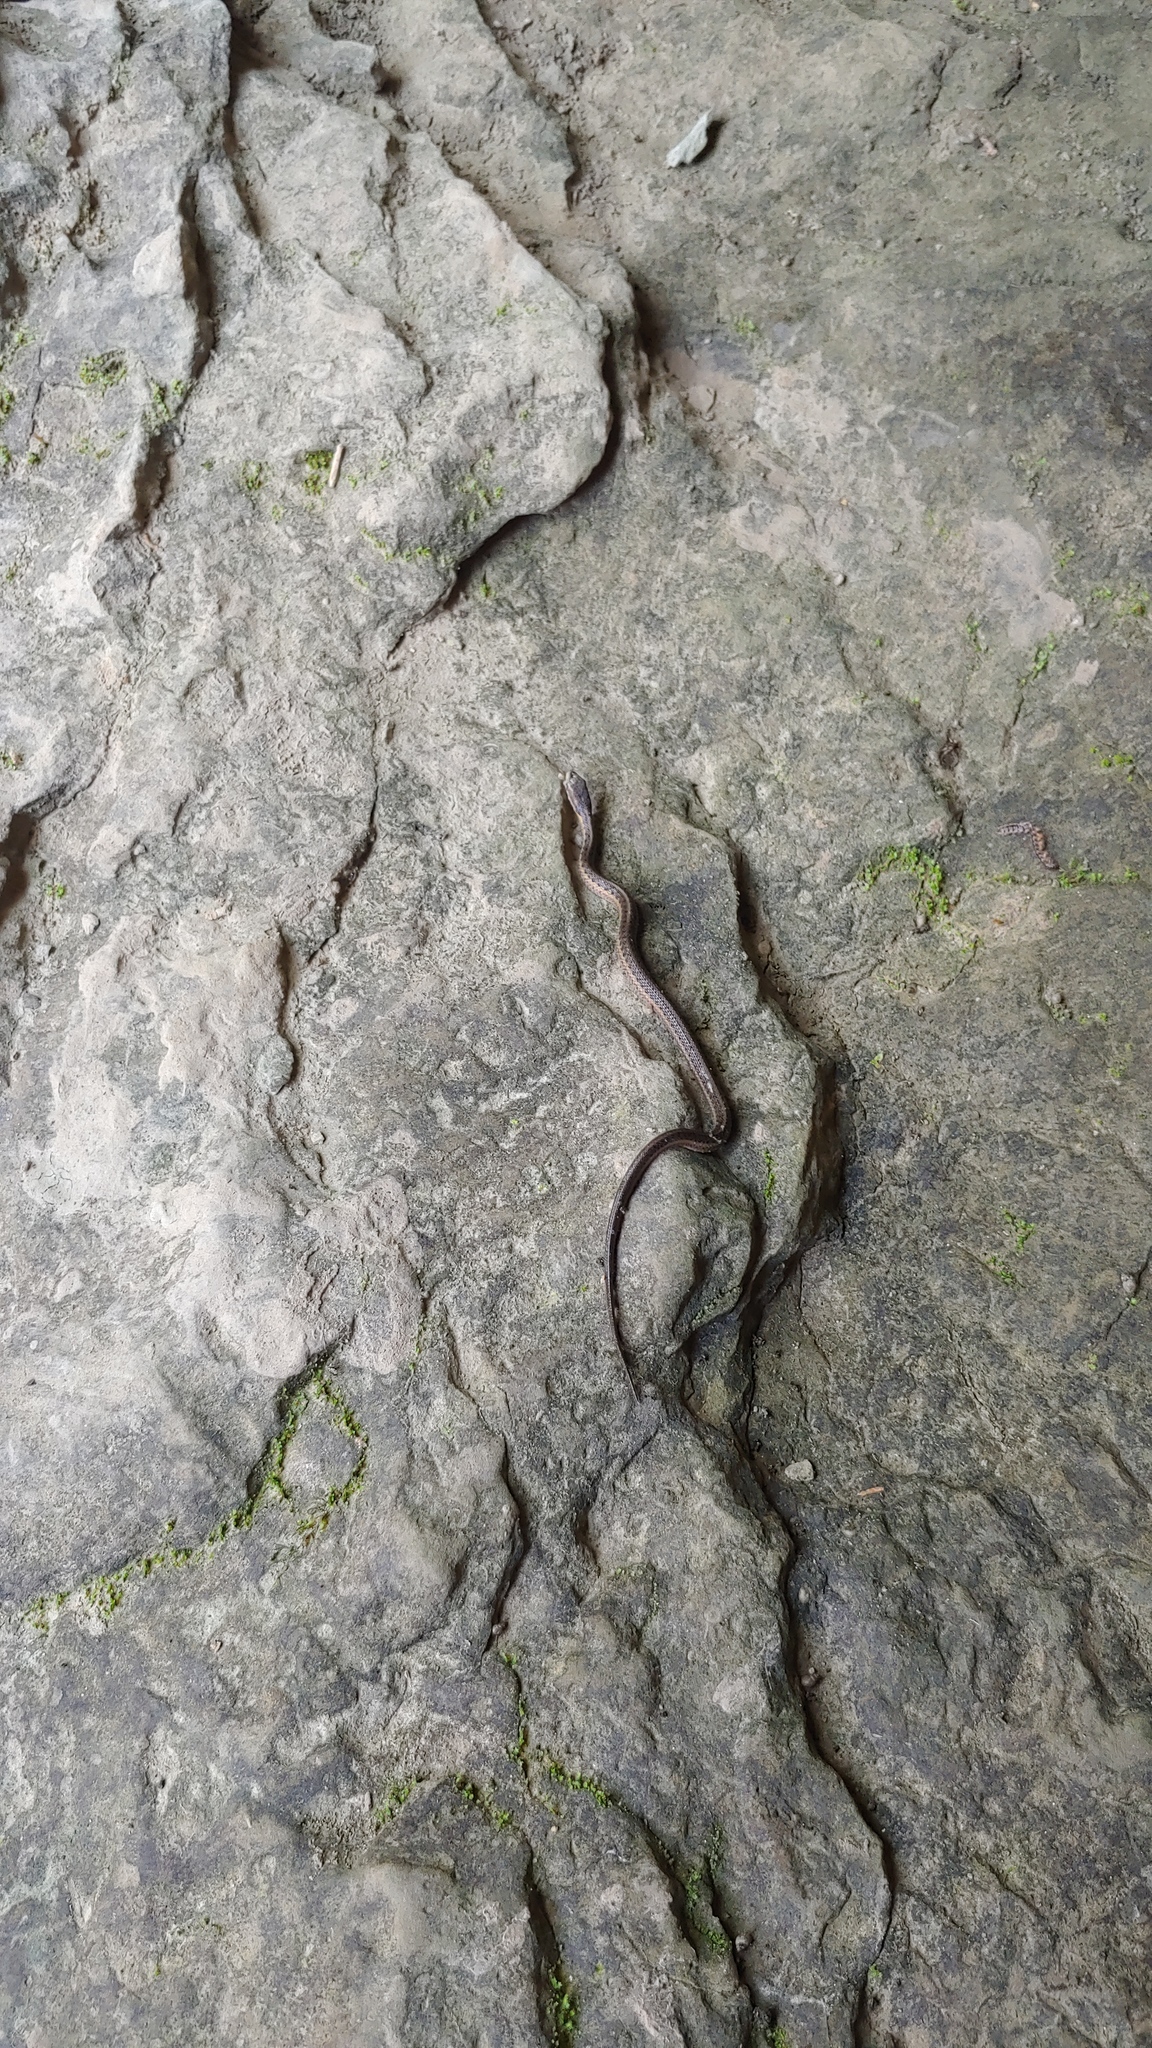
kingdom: Animalia
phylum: Chordata
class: Squamata
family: Colubridae
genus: Thamnophis
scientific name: Thamnophis sirtalis
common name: Common garter snake
